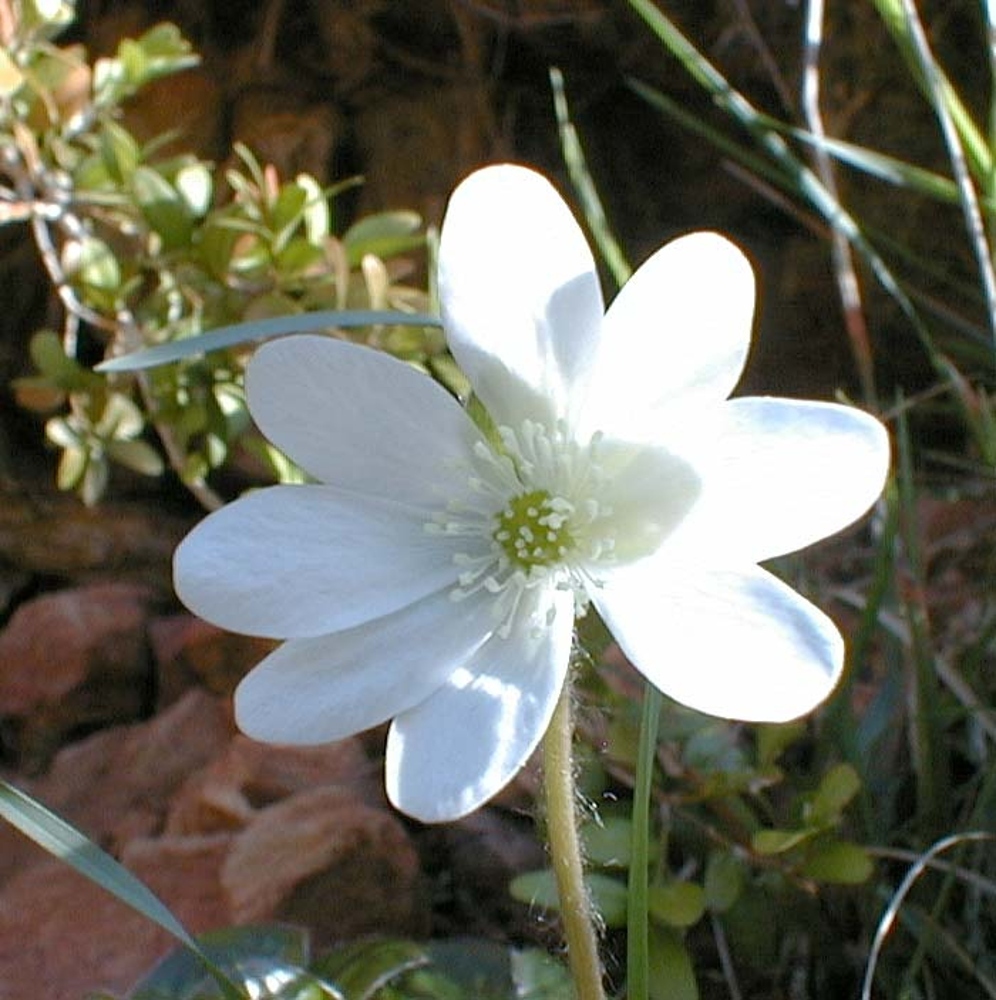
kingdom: Plantae
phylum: Tracheophyta
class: Magnoliopsida
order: Ranunculales
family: Ranunculaceae
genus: Hepatica
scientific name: Hepatica nobilis
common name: Liverleaf
